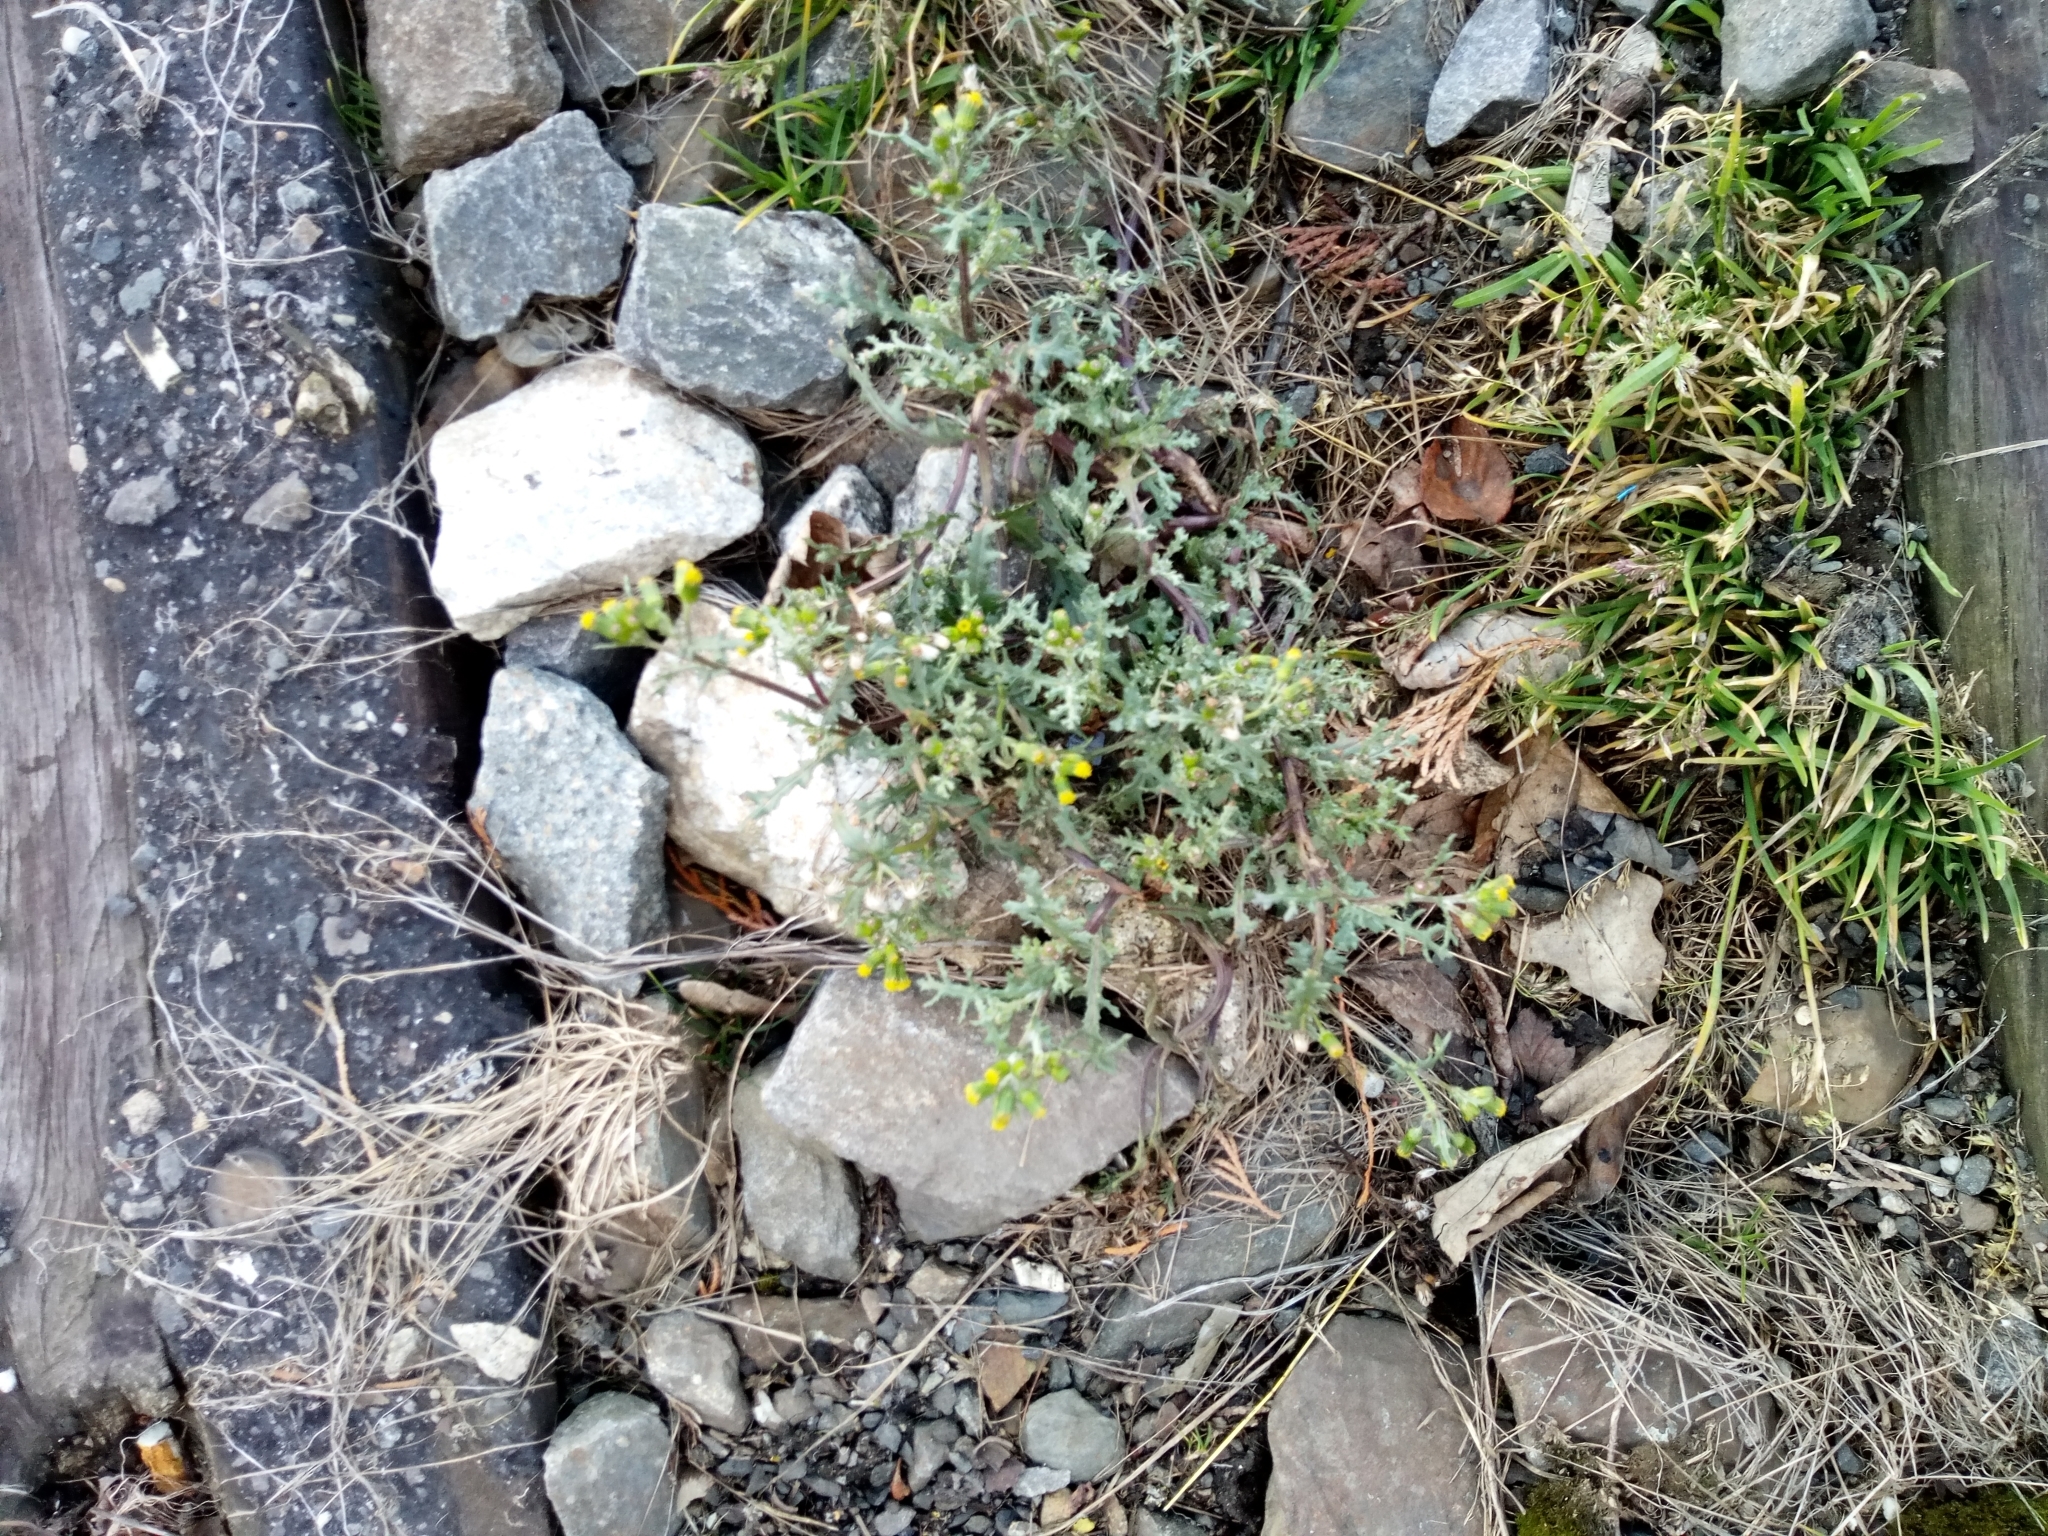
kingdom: Plantae
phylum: Tracheophyta
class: Magnoliopsida
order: Asterales
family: Asteraceae
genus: Senecio
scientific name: Senecio vulgaris
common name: Old-man-in-the-spring
